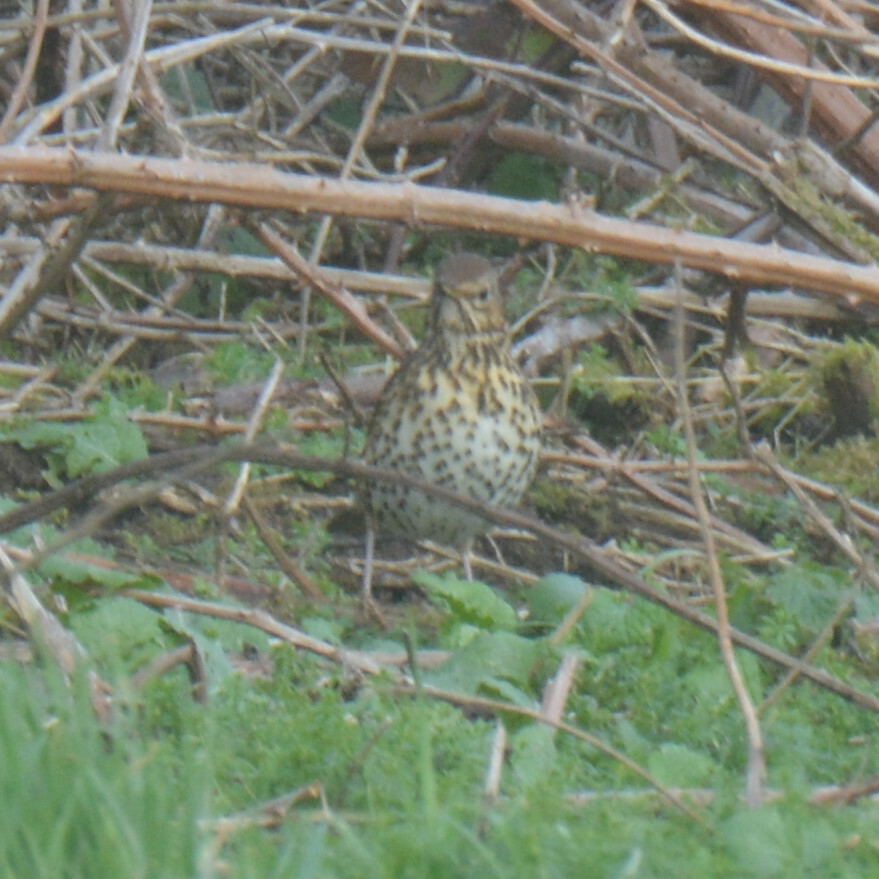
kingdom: Animalia
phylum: Chordata
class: Aves
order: Passeriformes
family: Turdidae
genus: Turdus
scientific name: Turdus philomelos
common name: Song thrush
